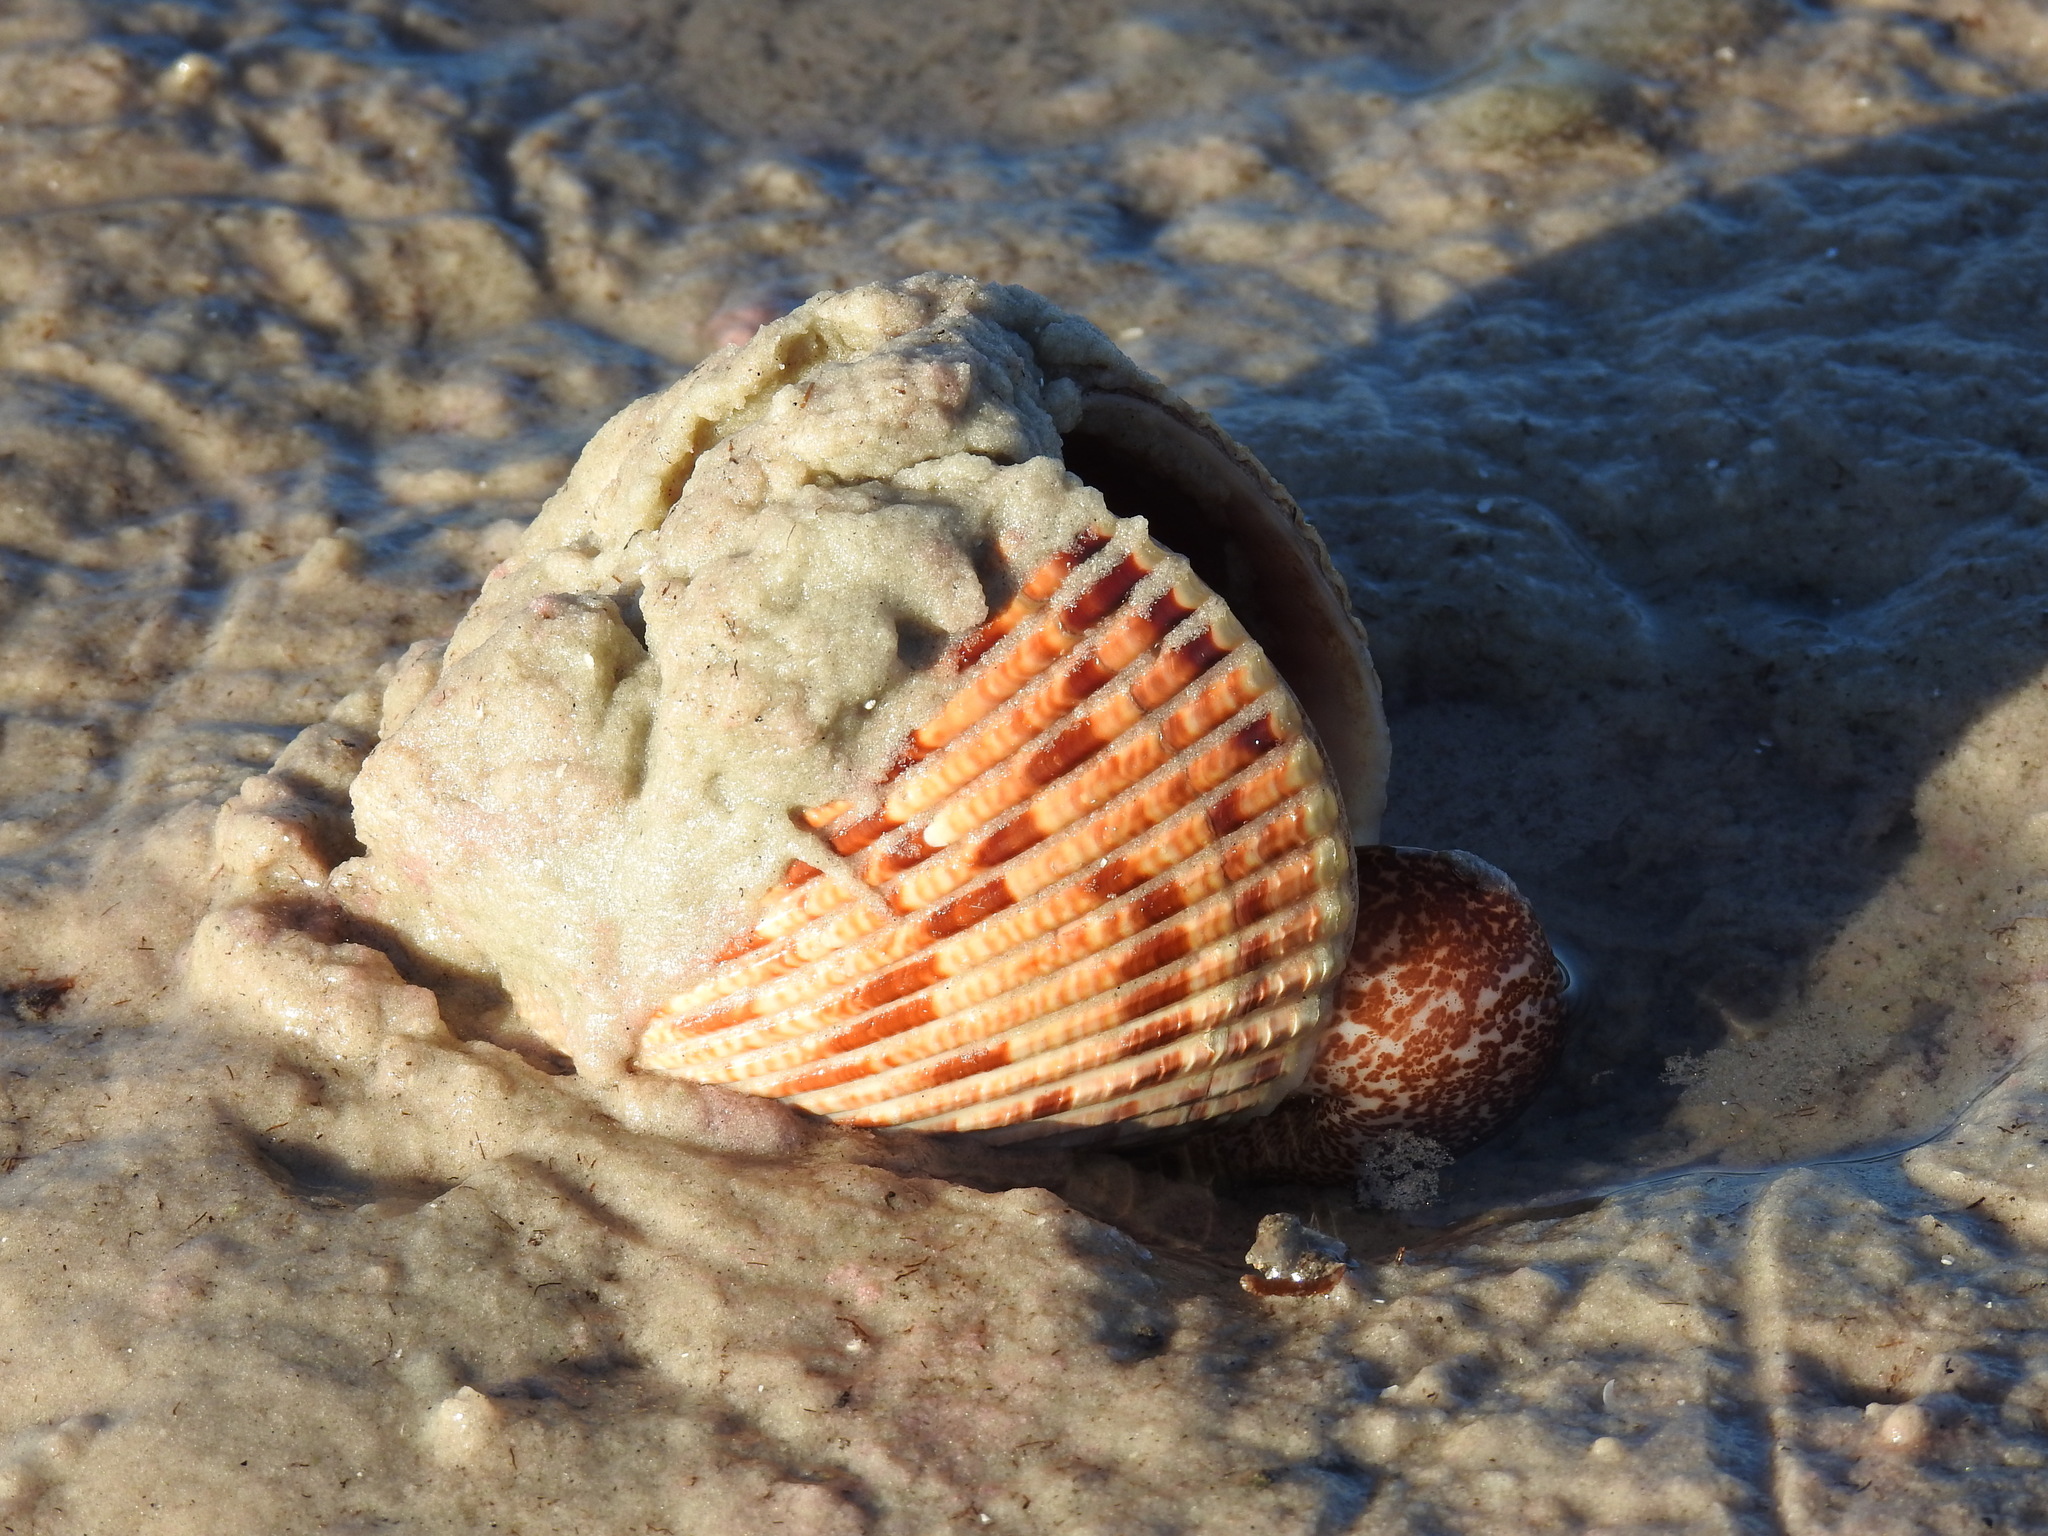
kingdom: Animalia
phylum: Mollusca
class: Bivalvia
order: Cardiida
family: Cardiidae
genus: Dinocardium
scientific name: Dinocardium robustum
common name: Atlantic giant cockle
